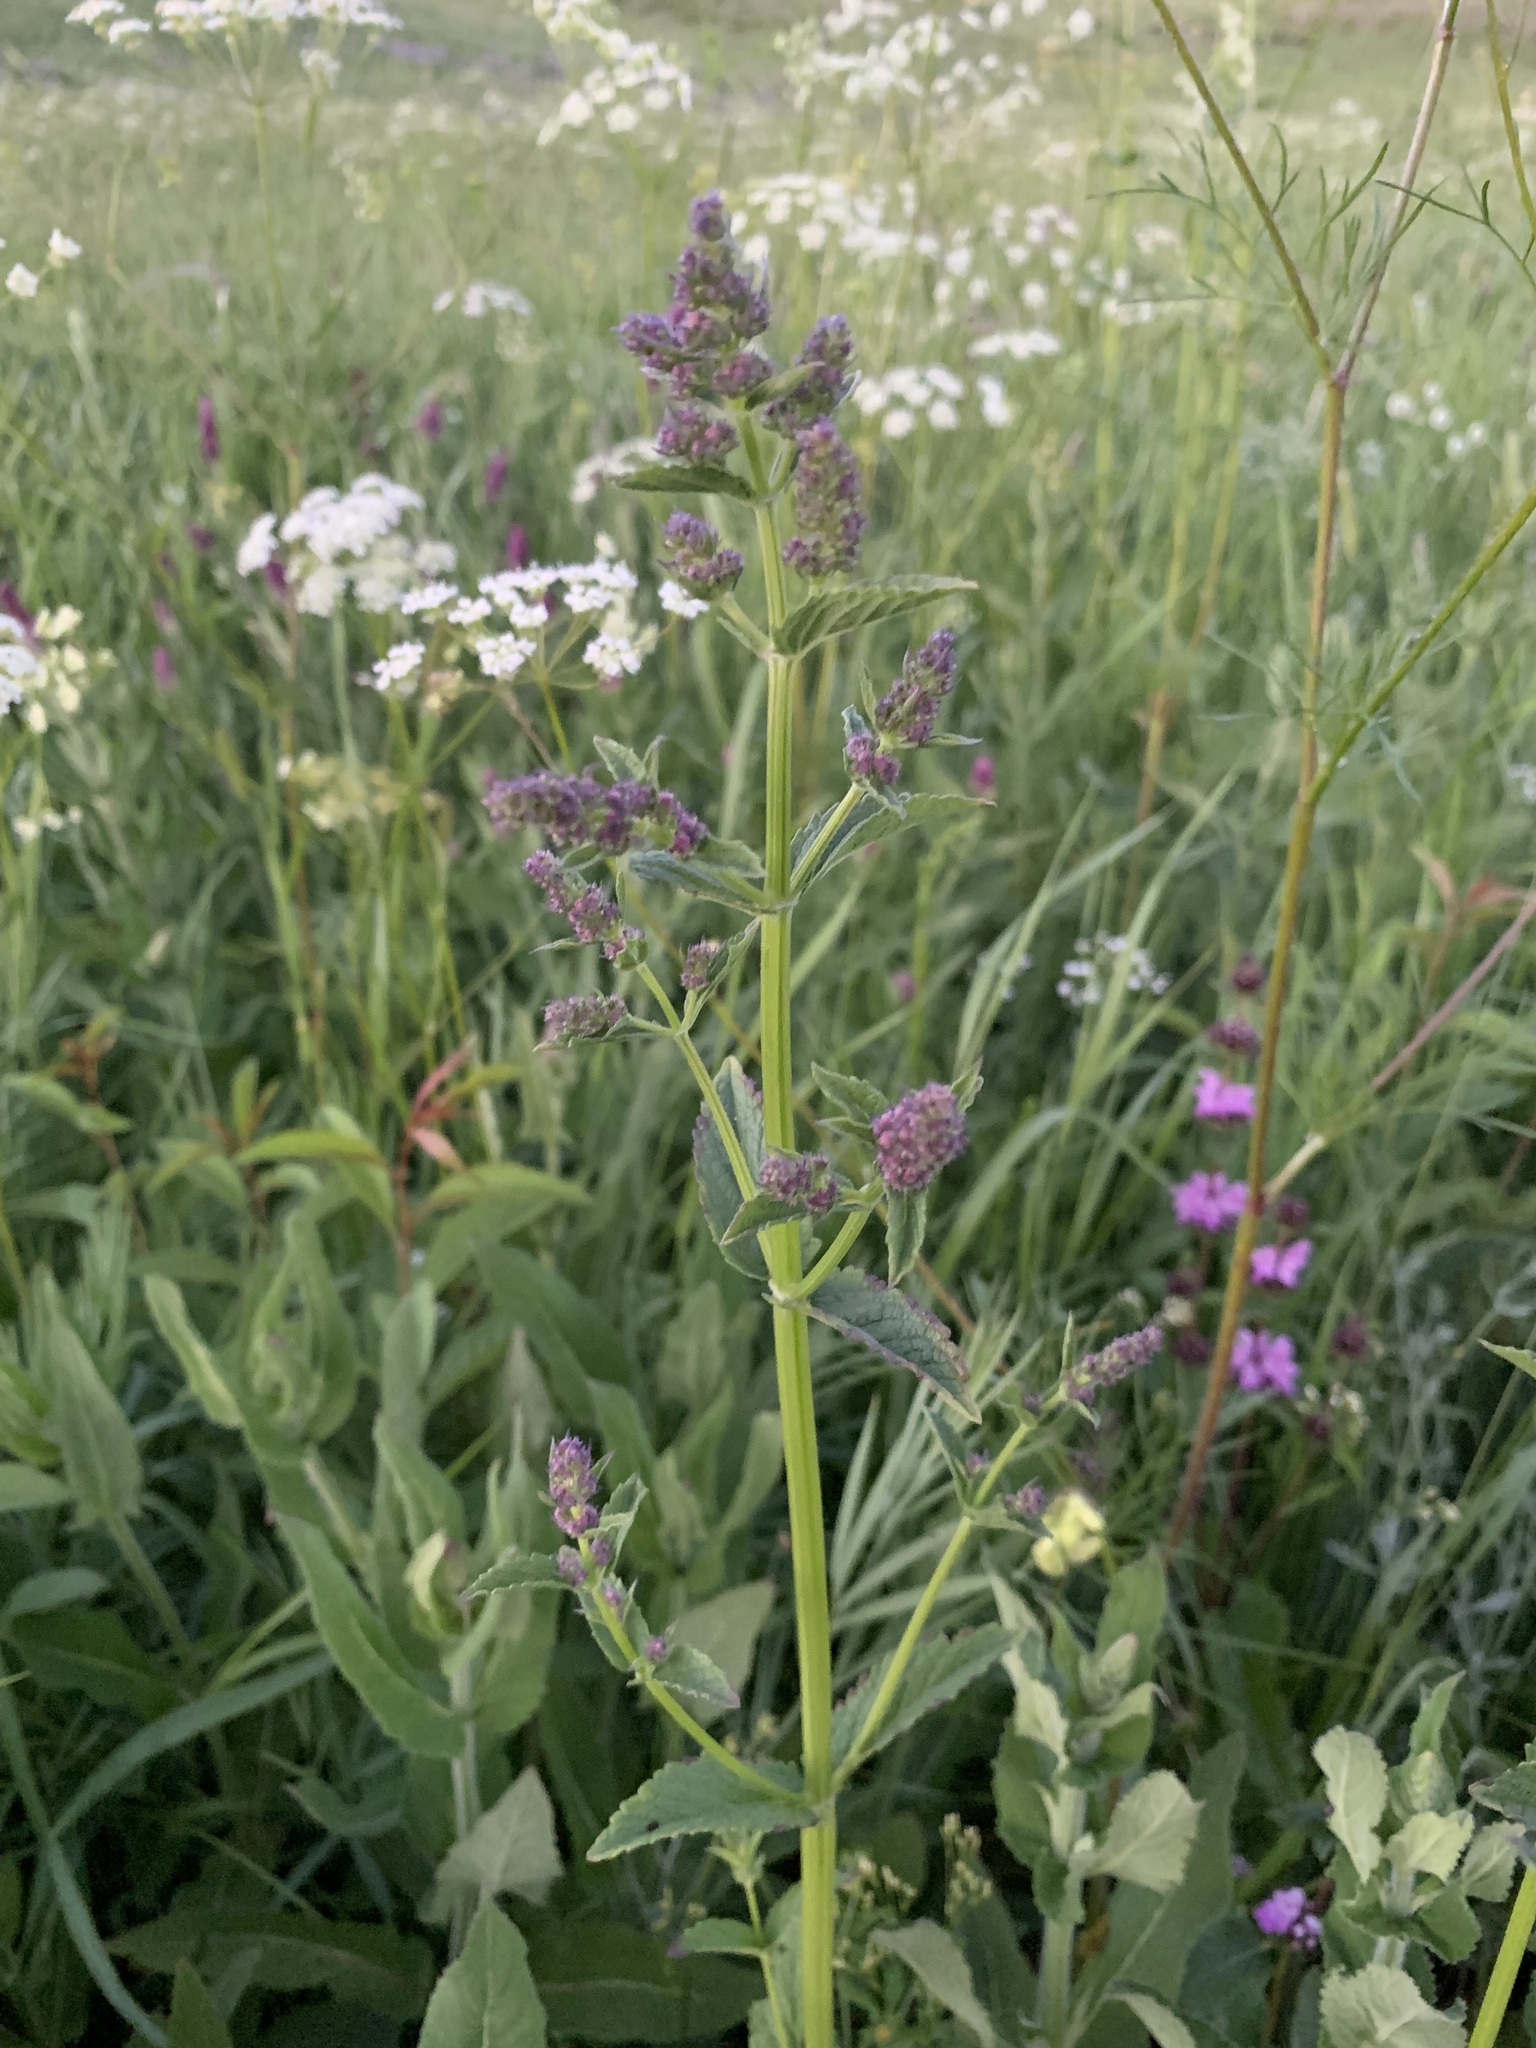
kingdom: Plantae
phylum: Tracheophyta
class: Magnoliopsida
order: Lamiales
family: Lamiaceae
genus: Nepeta
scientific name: Nepeta nuda
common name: Hairless catmint
